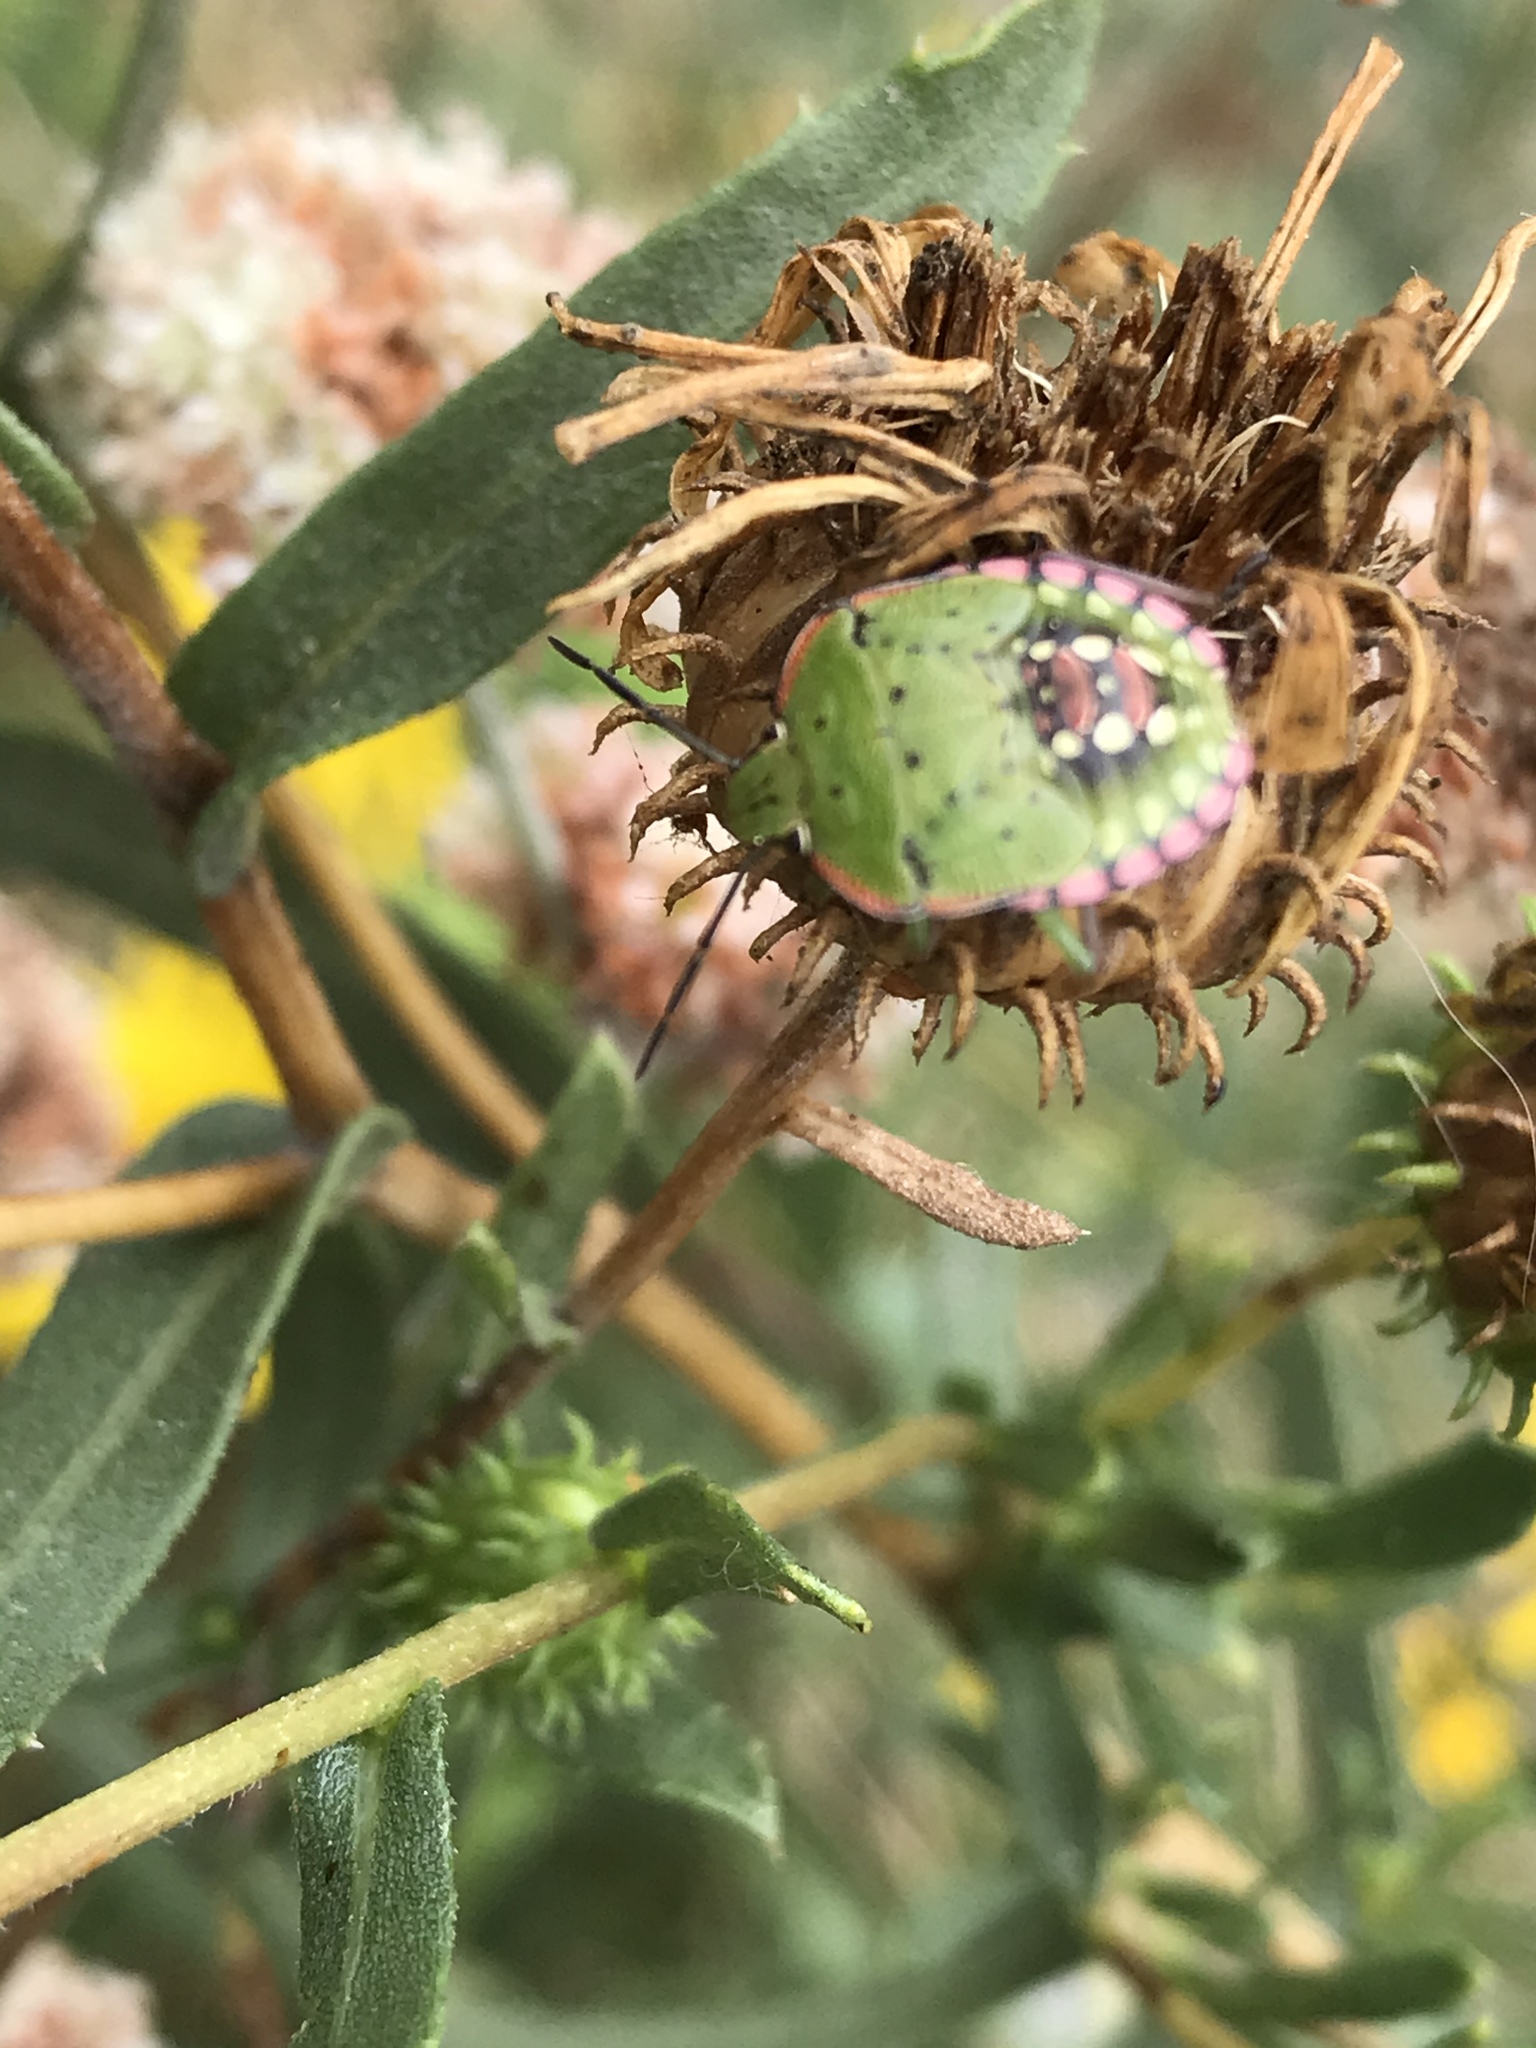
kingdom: Animalia
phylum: Arthropoda
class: Insecta
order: Hemiptera
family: Pentatomidae
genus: Nezara
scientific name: Nezara viridula
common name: Southern green stink bug
